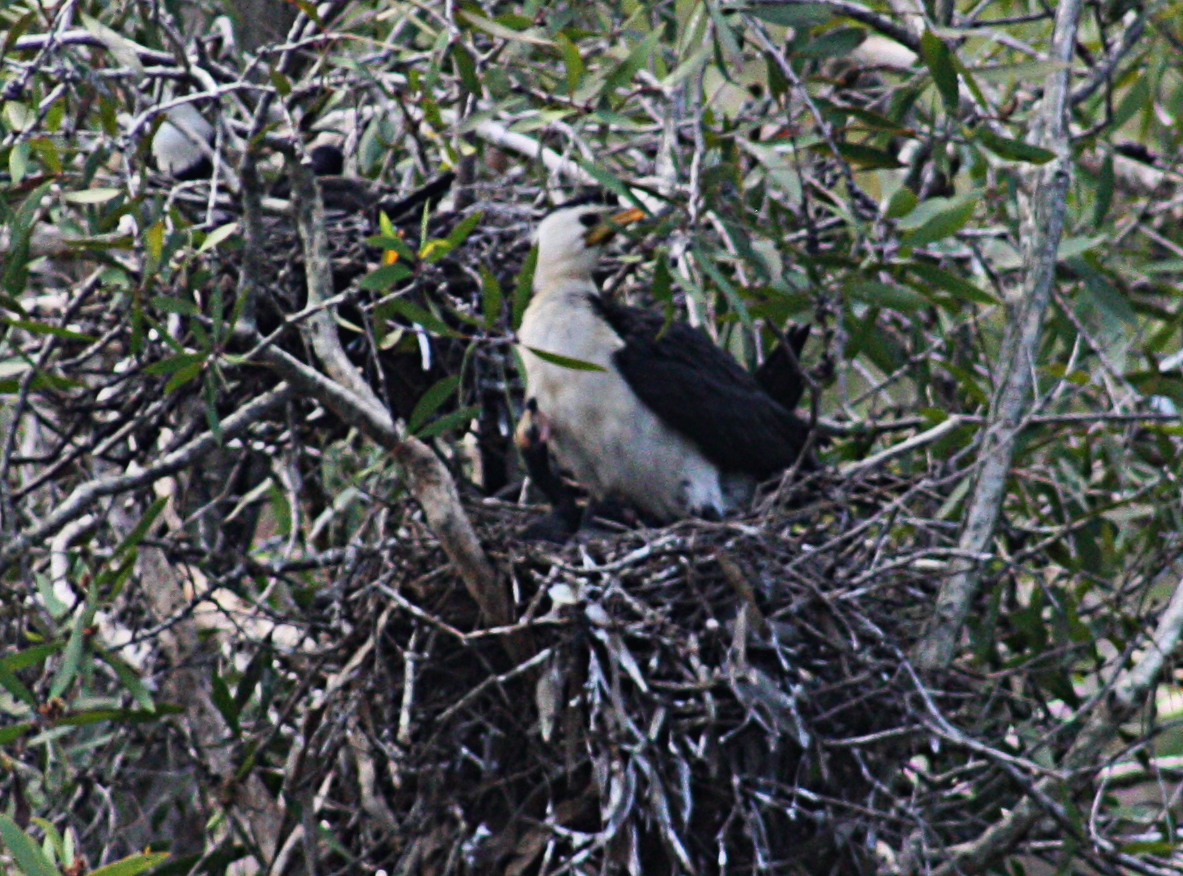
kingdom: Animalia
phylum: Chordata
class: Aves
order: Suliformes
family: Phalacrocoracidae
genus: Microcarbo
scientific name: Microcarbo melanoleucos
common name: Little pied cormorant
